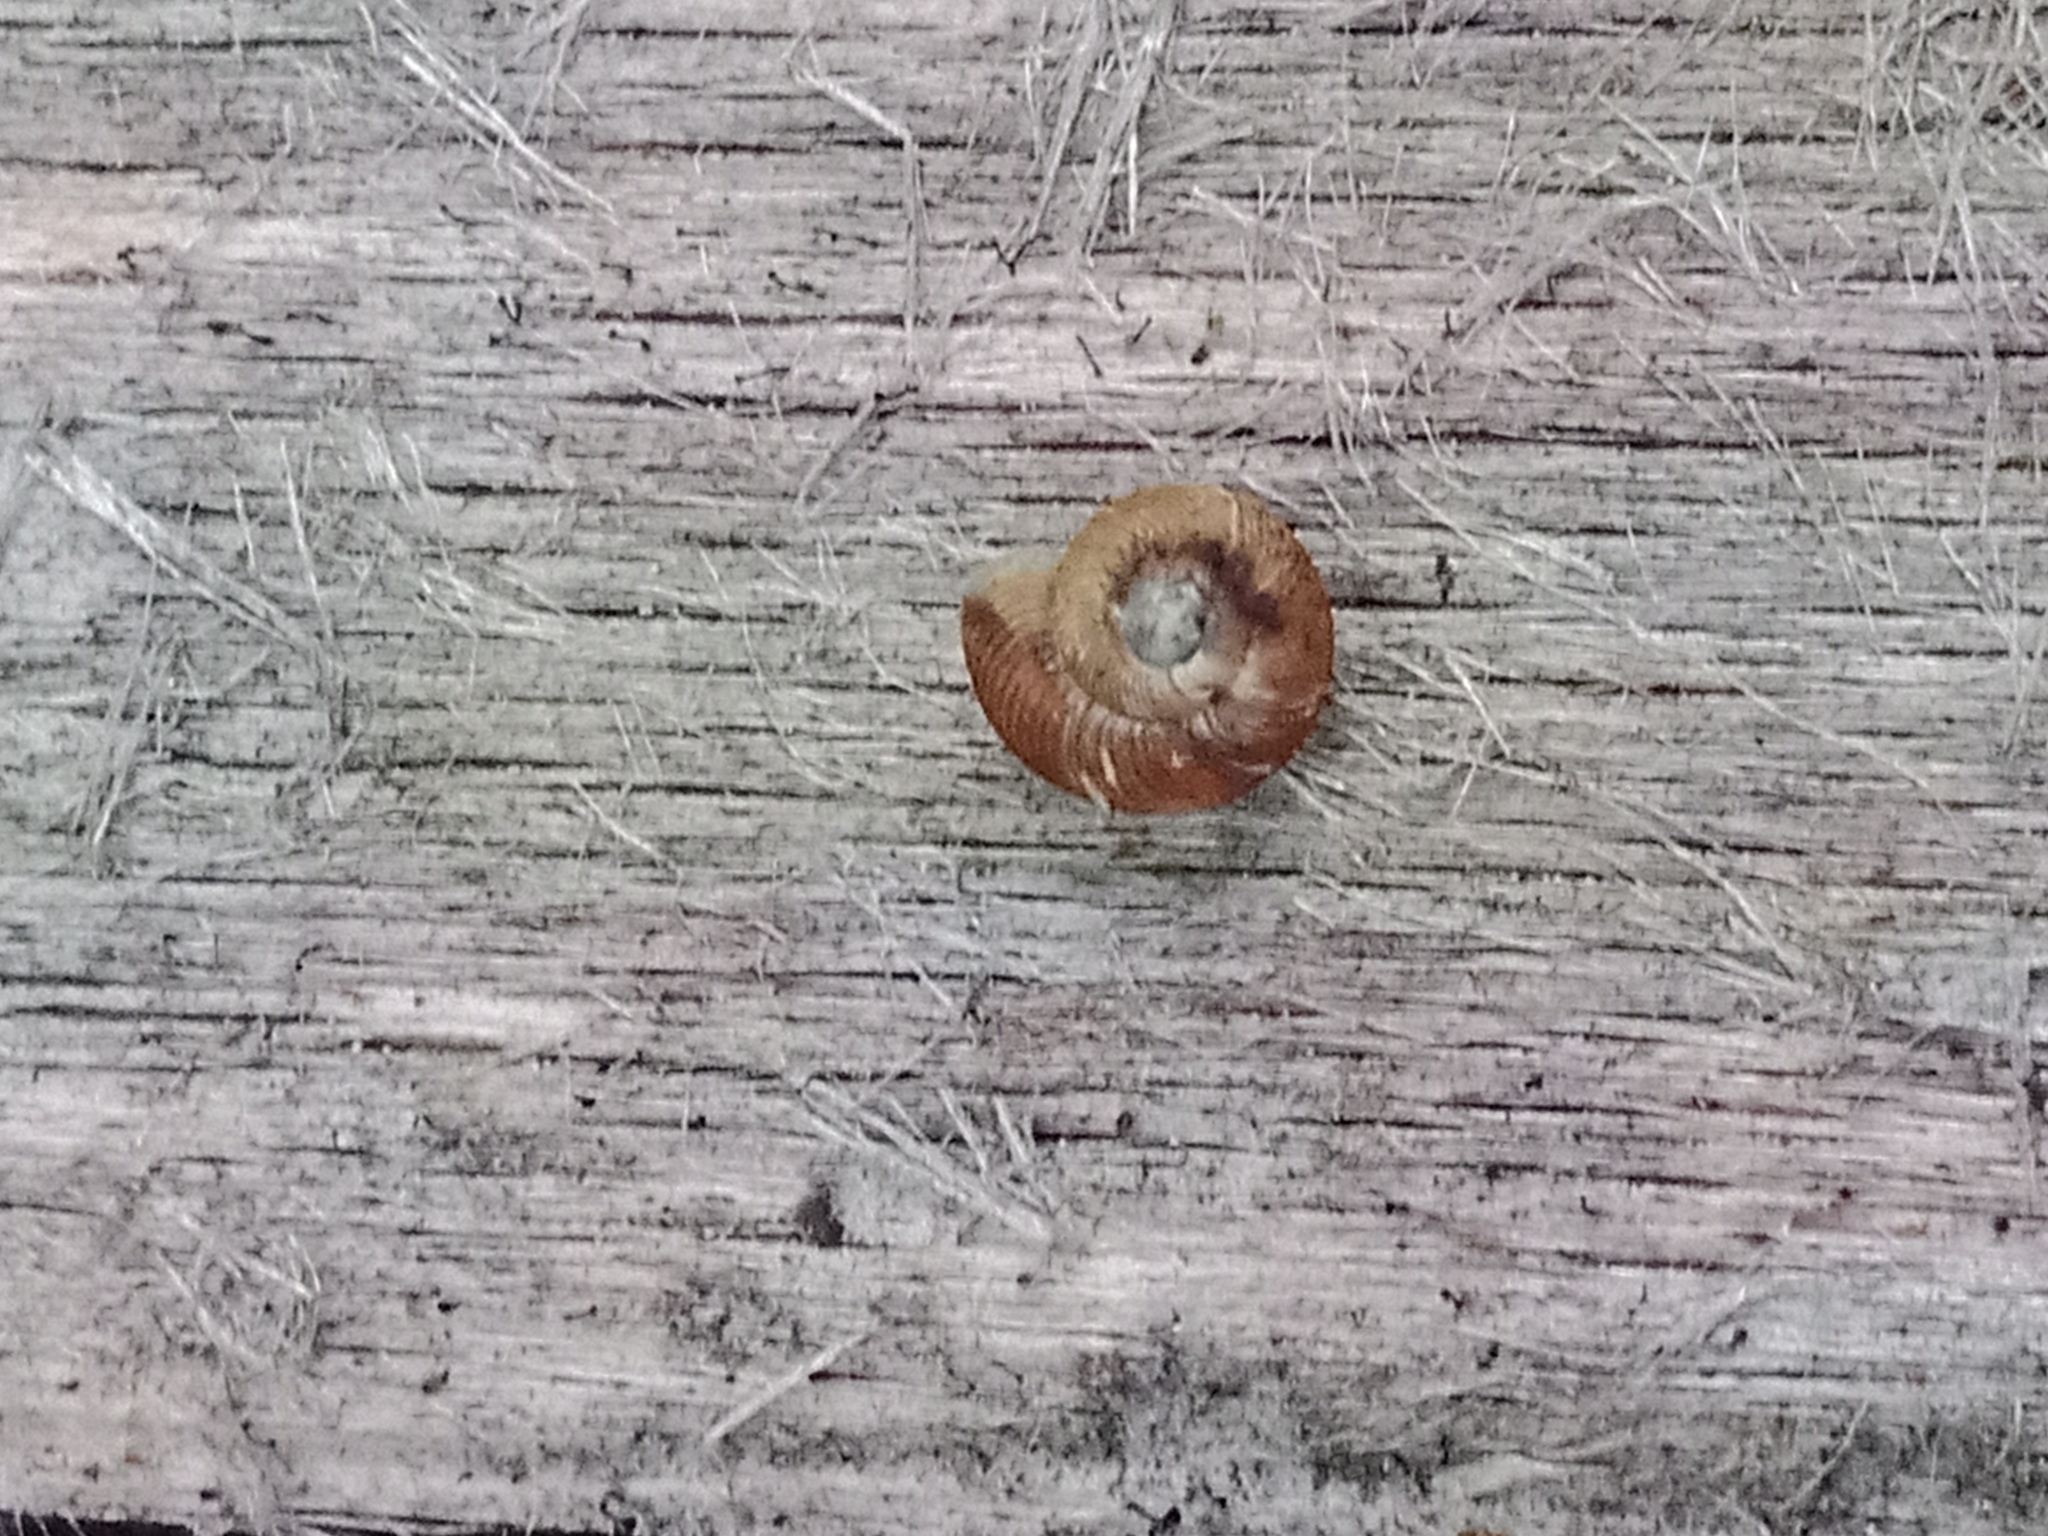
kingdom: Animalia
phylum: Mollusca
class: Gastropoda
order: Stylommatophora
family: Discidae
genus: Discus
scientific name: Discus ruderatus
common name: Brown disc snail
